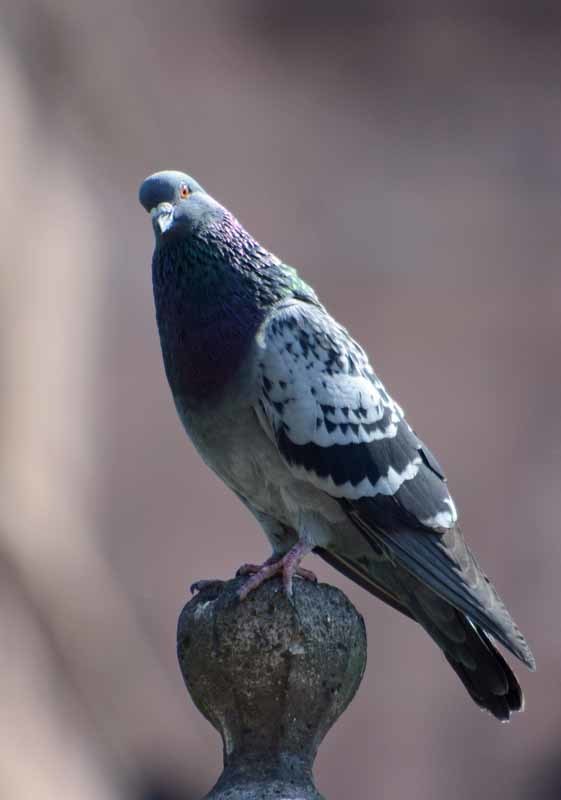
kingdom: Animalia
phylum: Chordata
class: Aves
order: Columbiformes
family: Columbidae
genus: Columba
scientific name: Columba livia
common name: Rock pigeon
